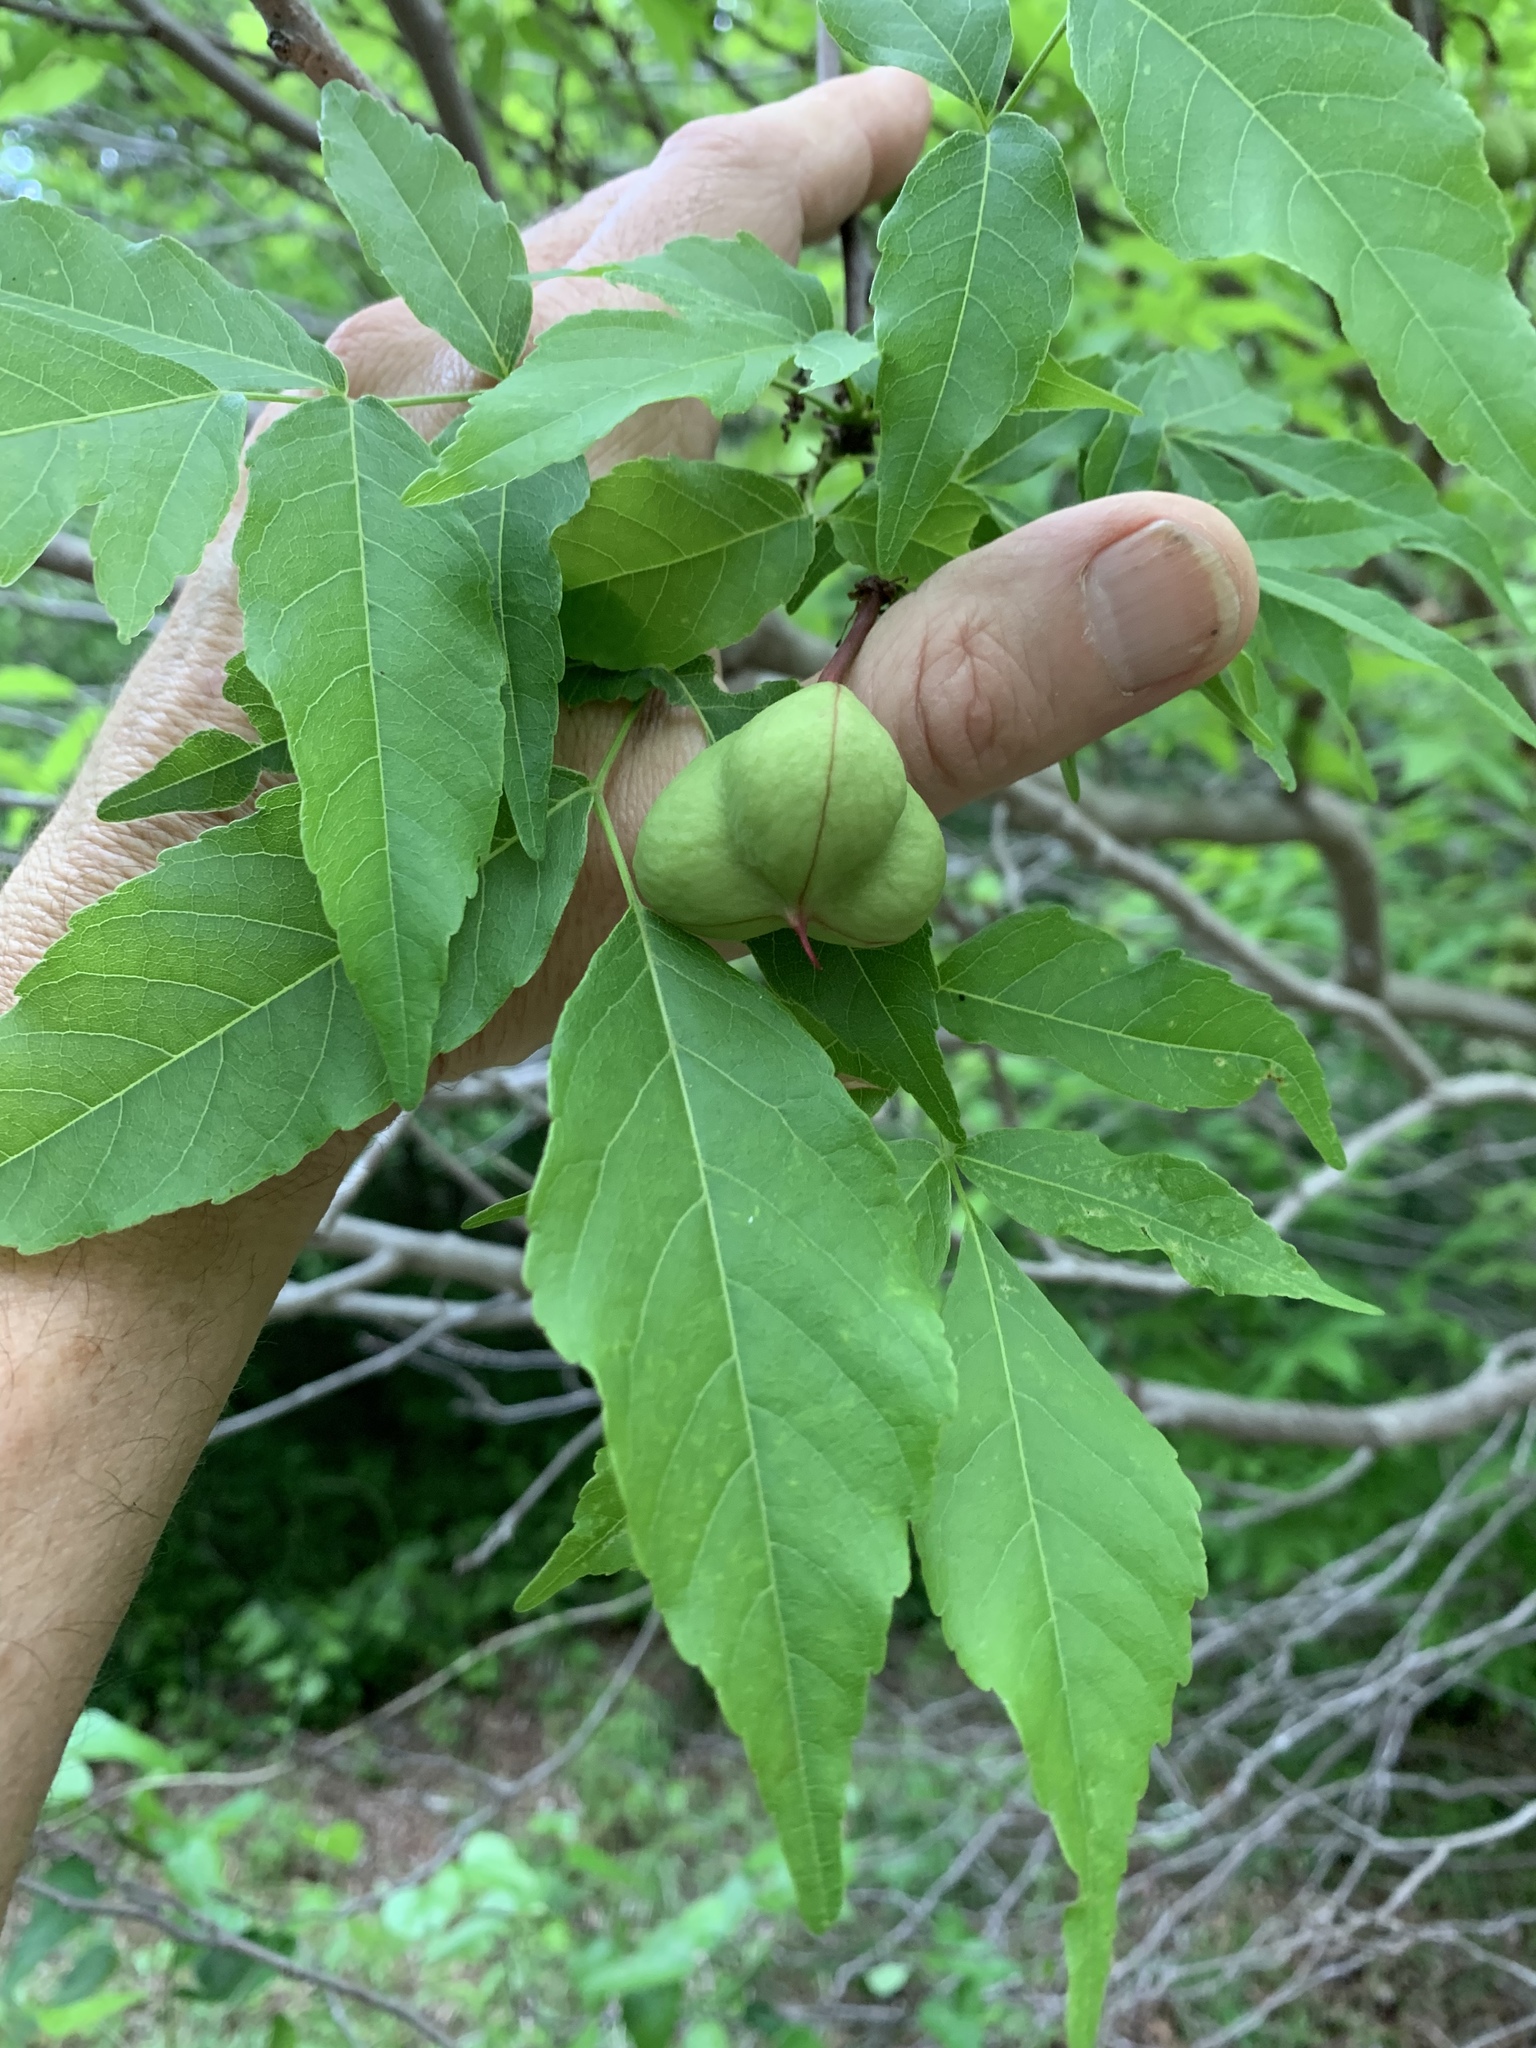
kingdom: Plantae
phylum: Tracheophyta
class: Magnoliopsida
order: Sapindales
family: Sapindaceae
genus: Ungnadia
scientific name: Ungnadia speciosa
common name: Texas-buckeye
